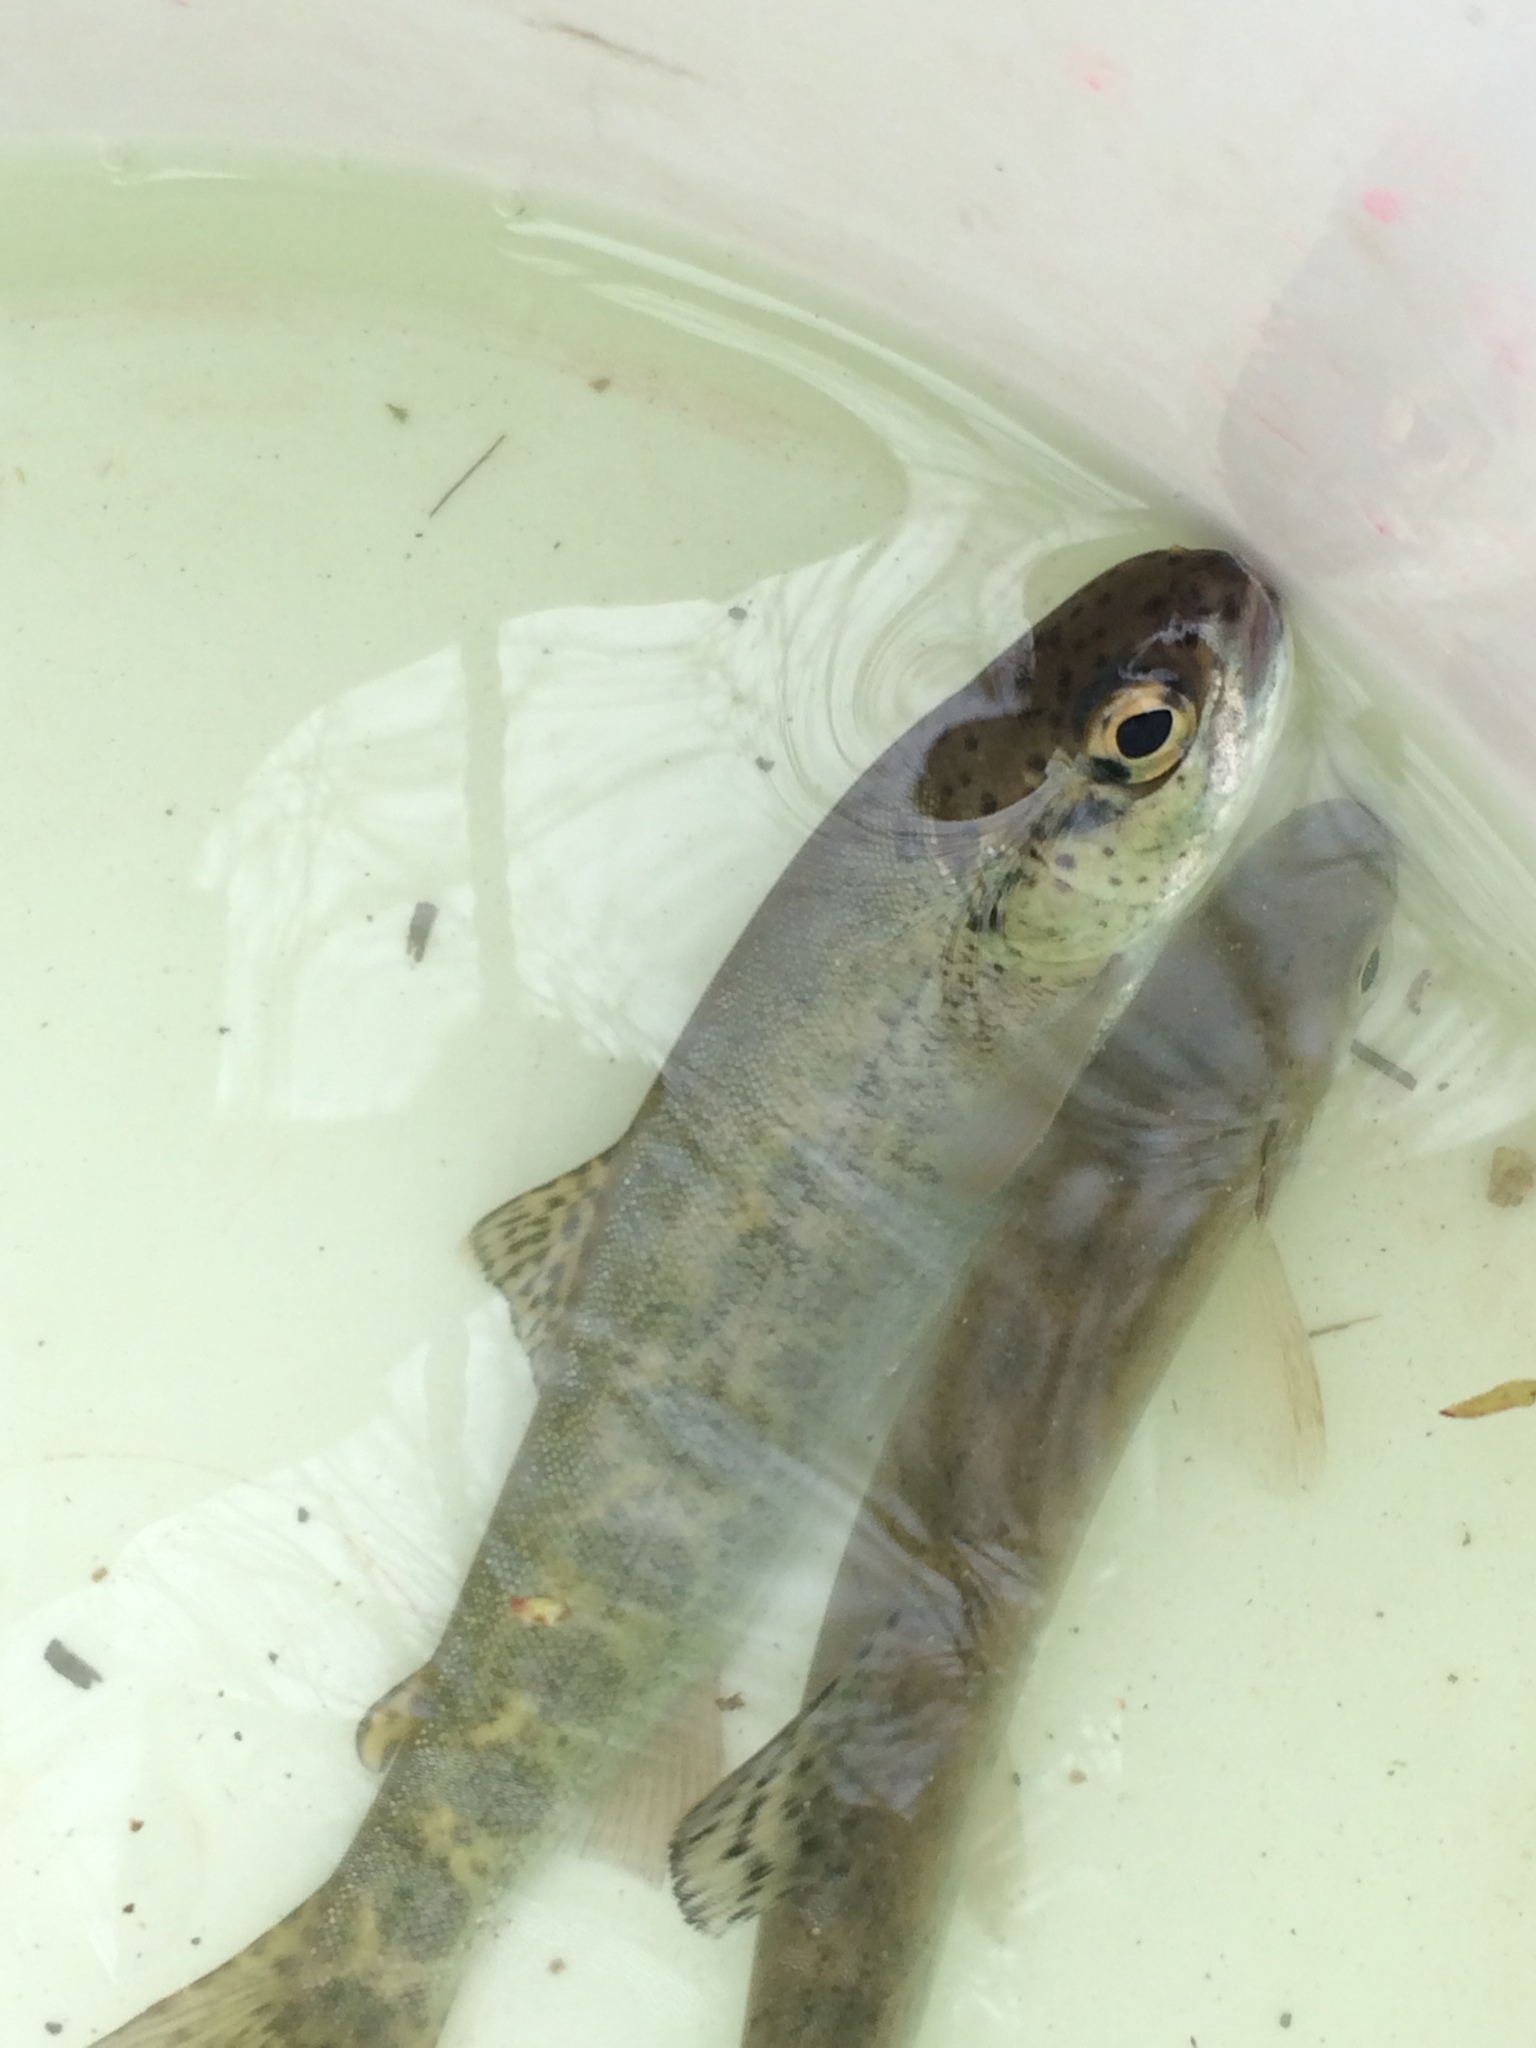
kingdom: Animalia
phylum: Chordata
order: Salmoniformes
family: Salmonidae
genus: Oncorhynchus
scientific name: Oncorhynchus mykiss
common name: Rainbow trout
